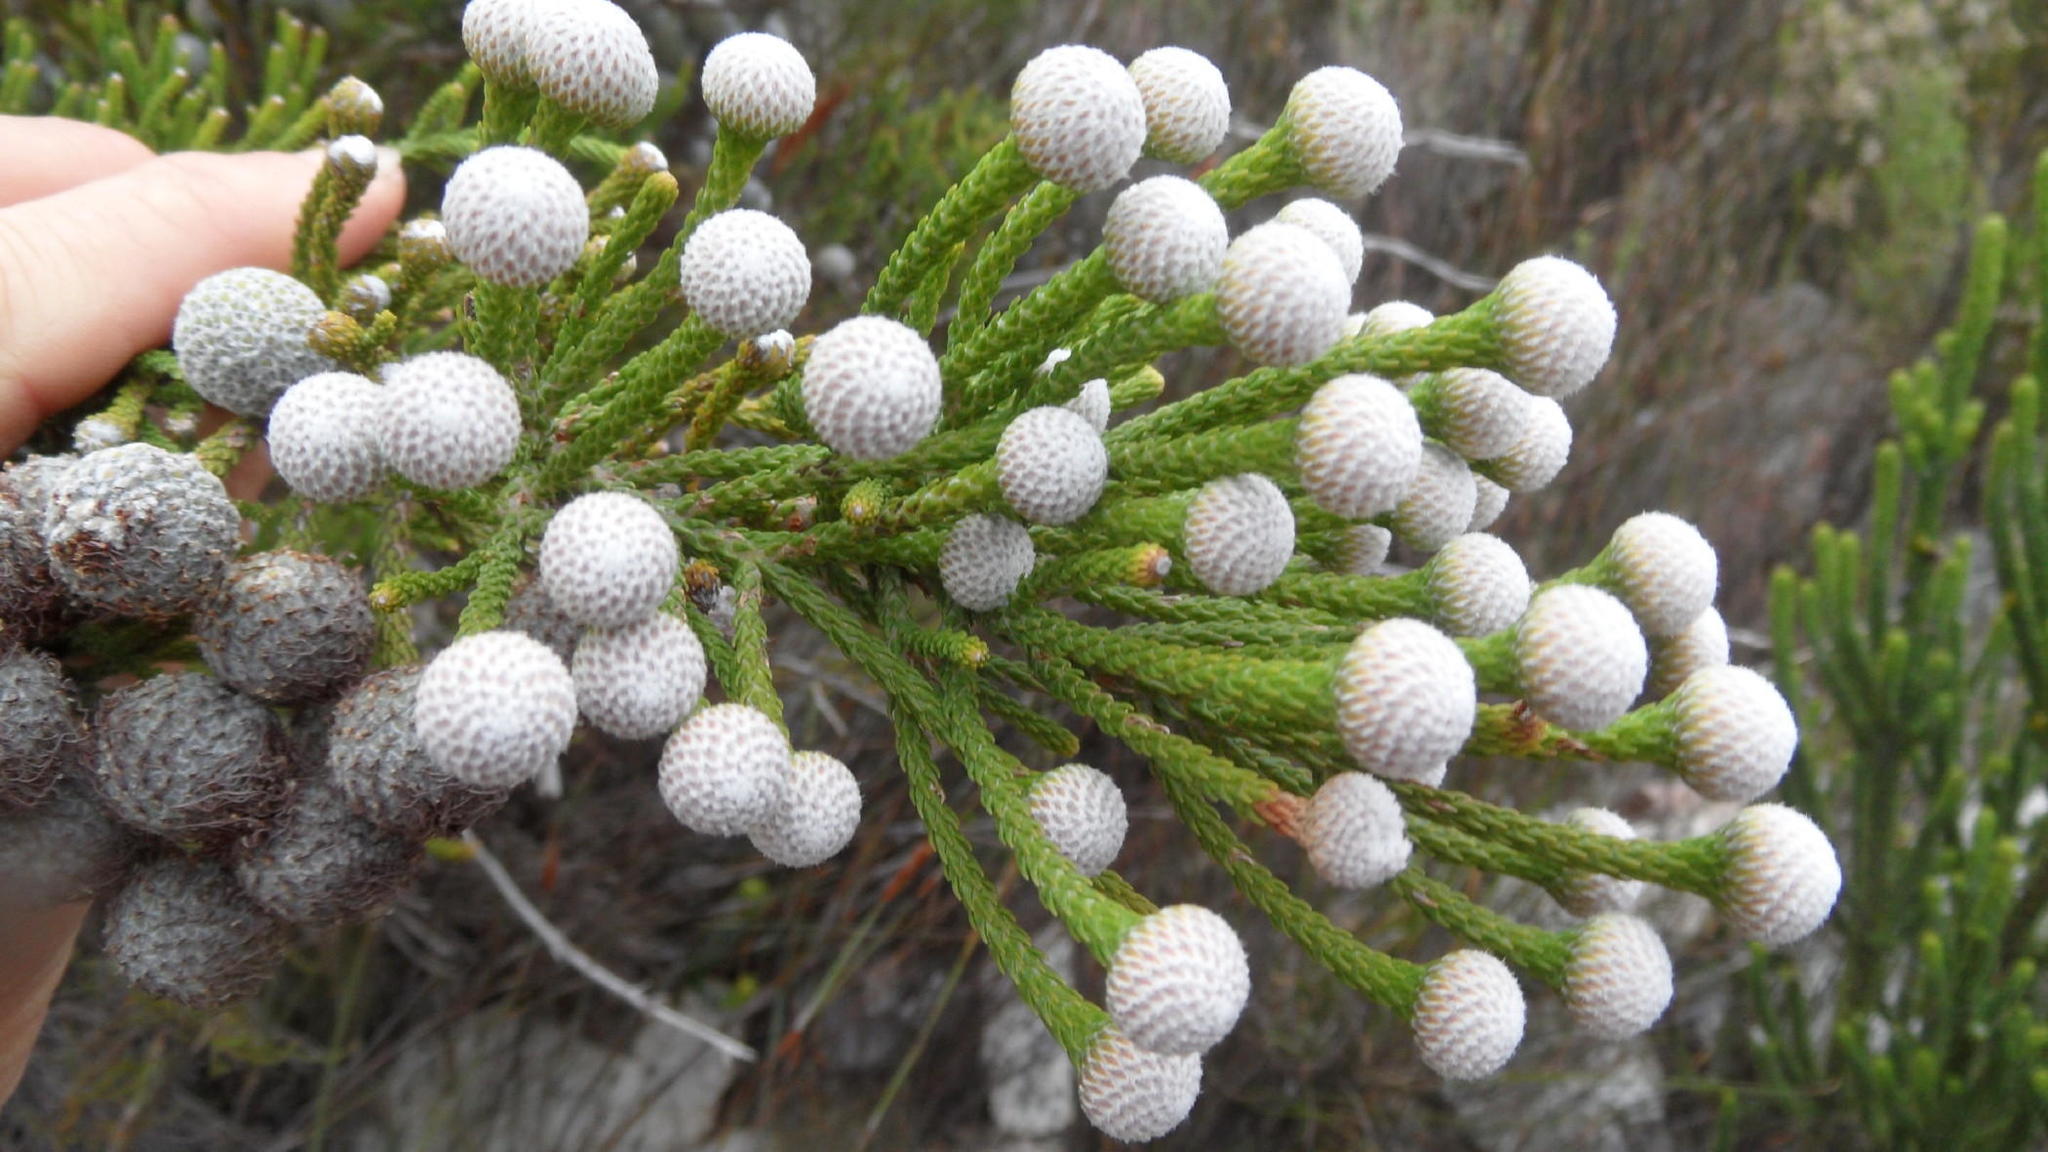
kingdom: Plantae
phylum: Tracheophyta
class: Magnoliopsida
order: Bruniales
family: Bruniaceae
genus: Brunia
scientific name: Brunia noduliflora
